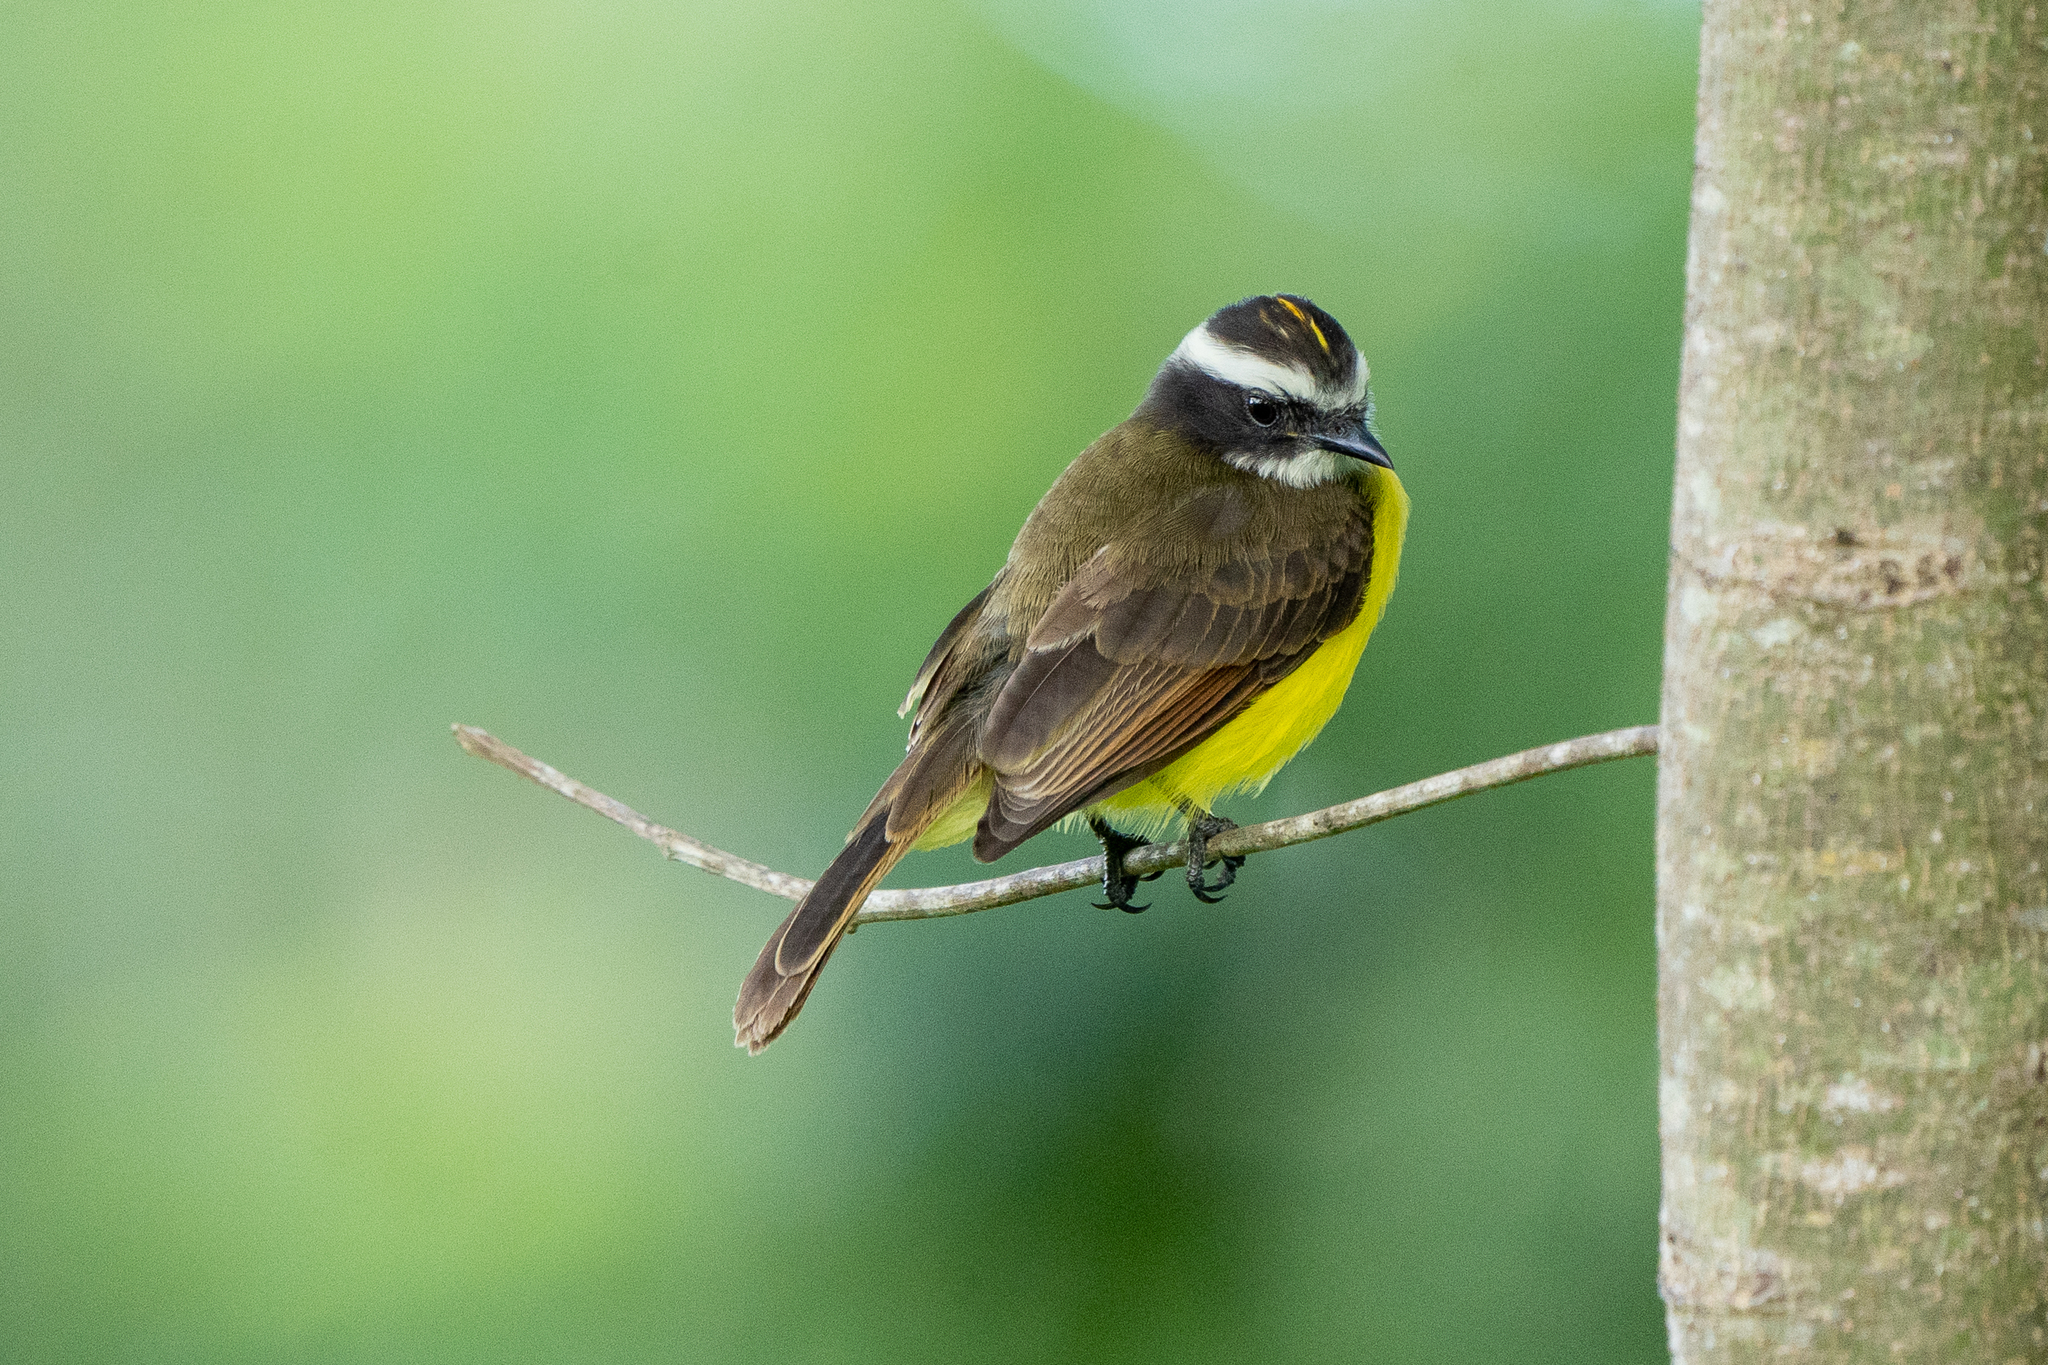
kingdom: Animalia
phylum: Chordata
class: Aves
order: Passeriformes
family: Tyrannidae
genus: Myiozetetes
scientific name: Myiozetetes cayanensis
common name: Rusty-margined flycatcher
